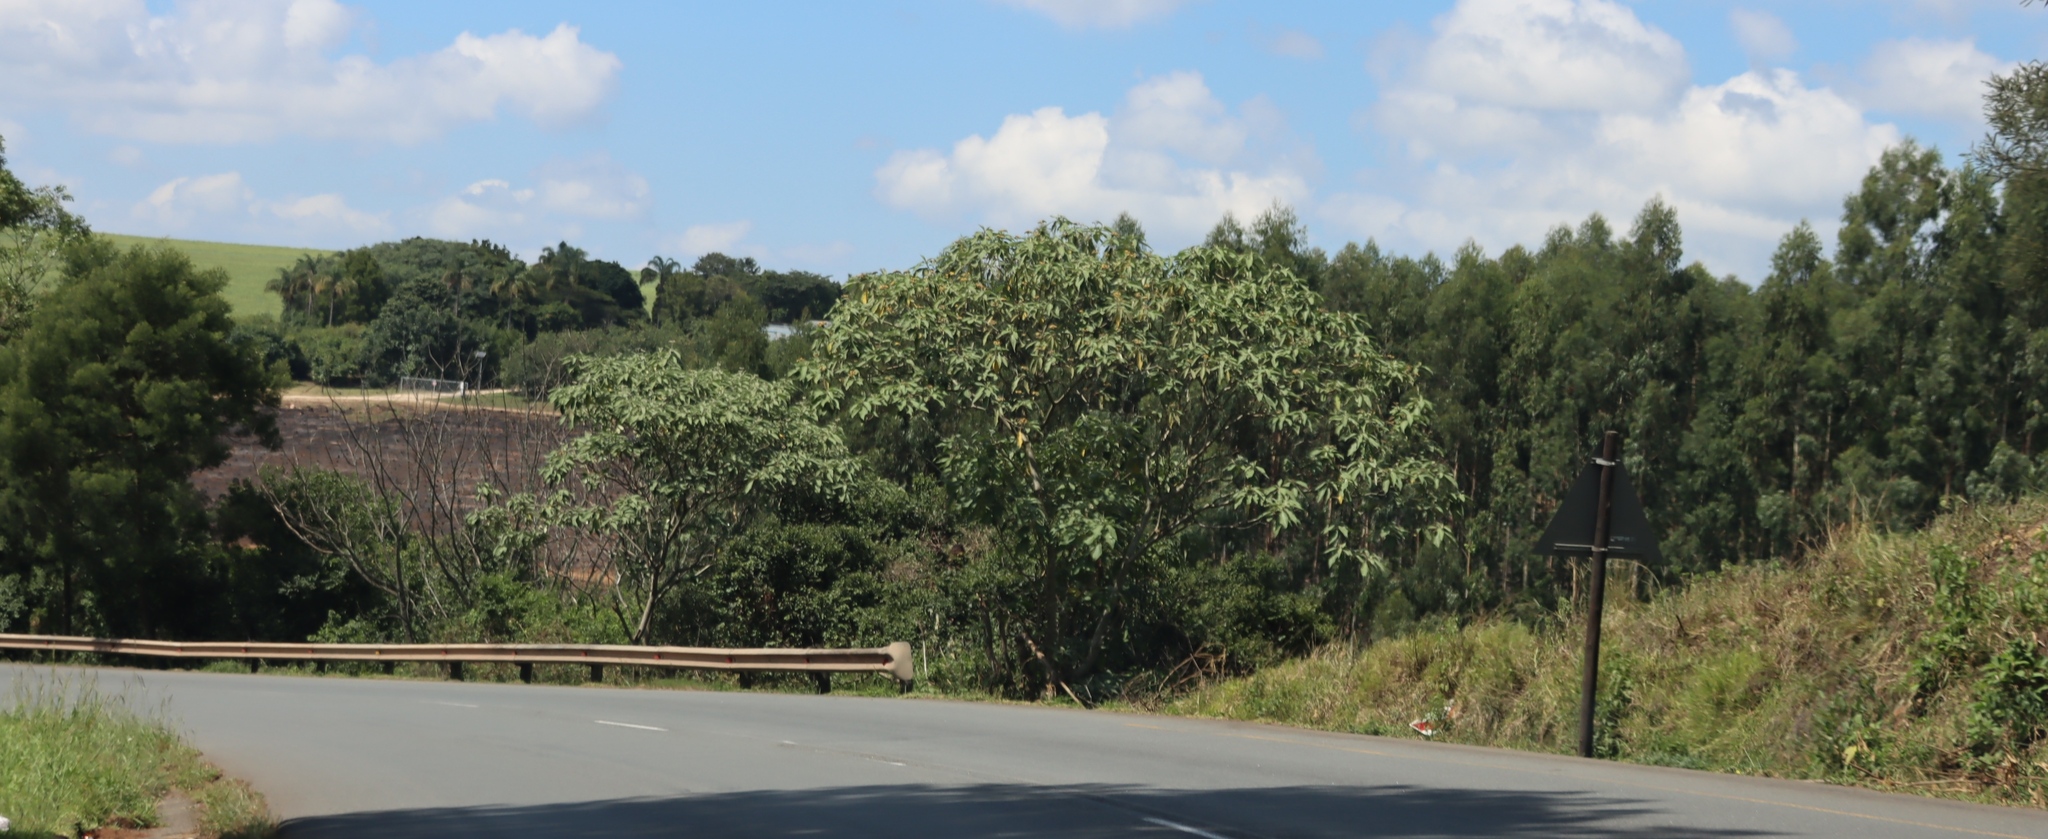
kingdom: Plantae
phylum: Tracheophyta
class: Magnoliopsida
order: Solanales
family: Solanaceae
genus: Solanum
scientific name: Solanum mauritianum
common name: Earleaf nightshade
